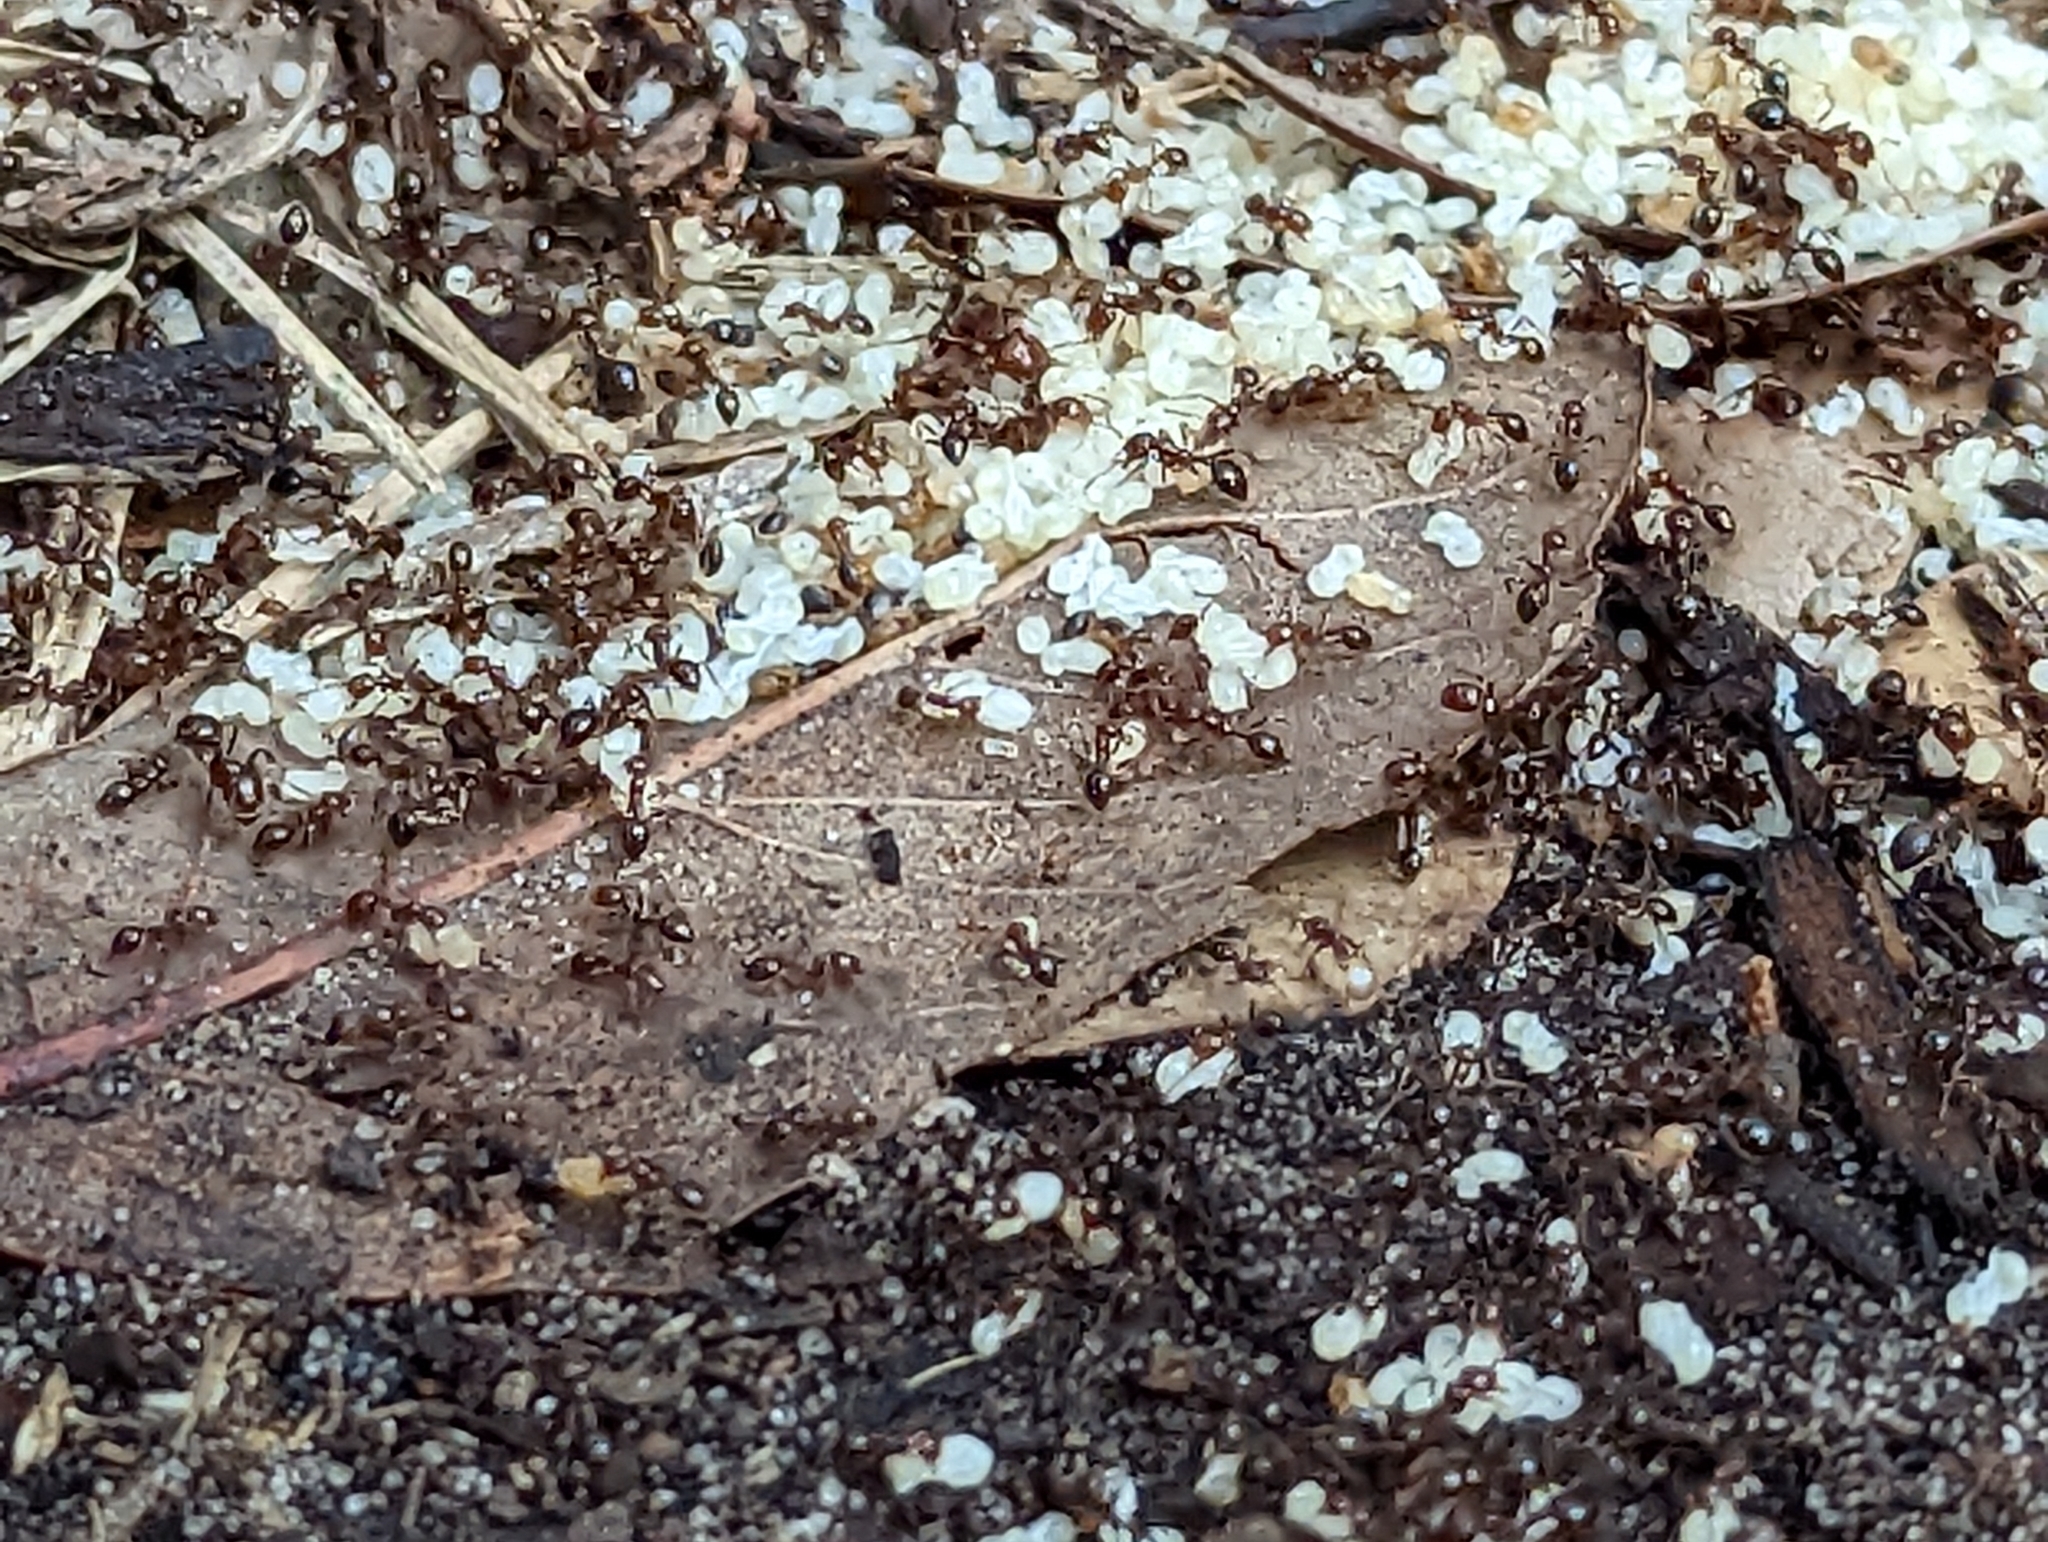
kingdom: Animalia
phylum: Arthropoda
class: Insecta
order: Hymenoptera
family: Formicidae
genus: Solenopsis
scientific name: Solenopsis invicta
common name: Red imported fire ant
